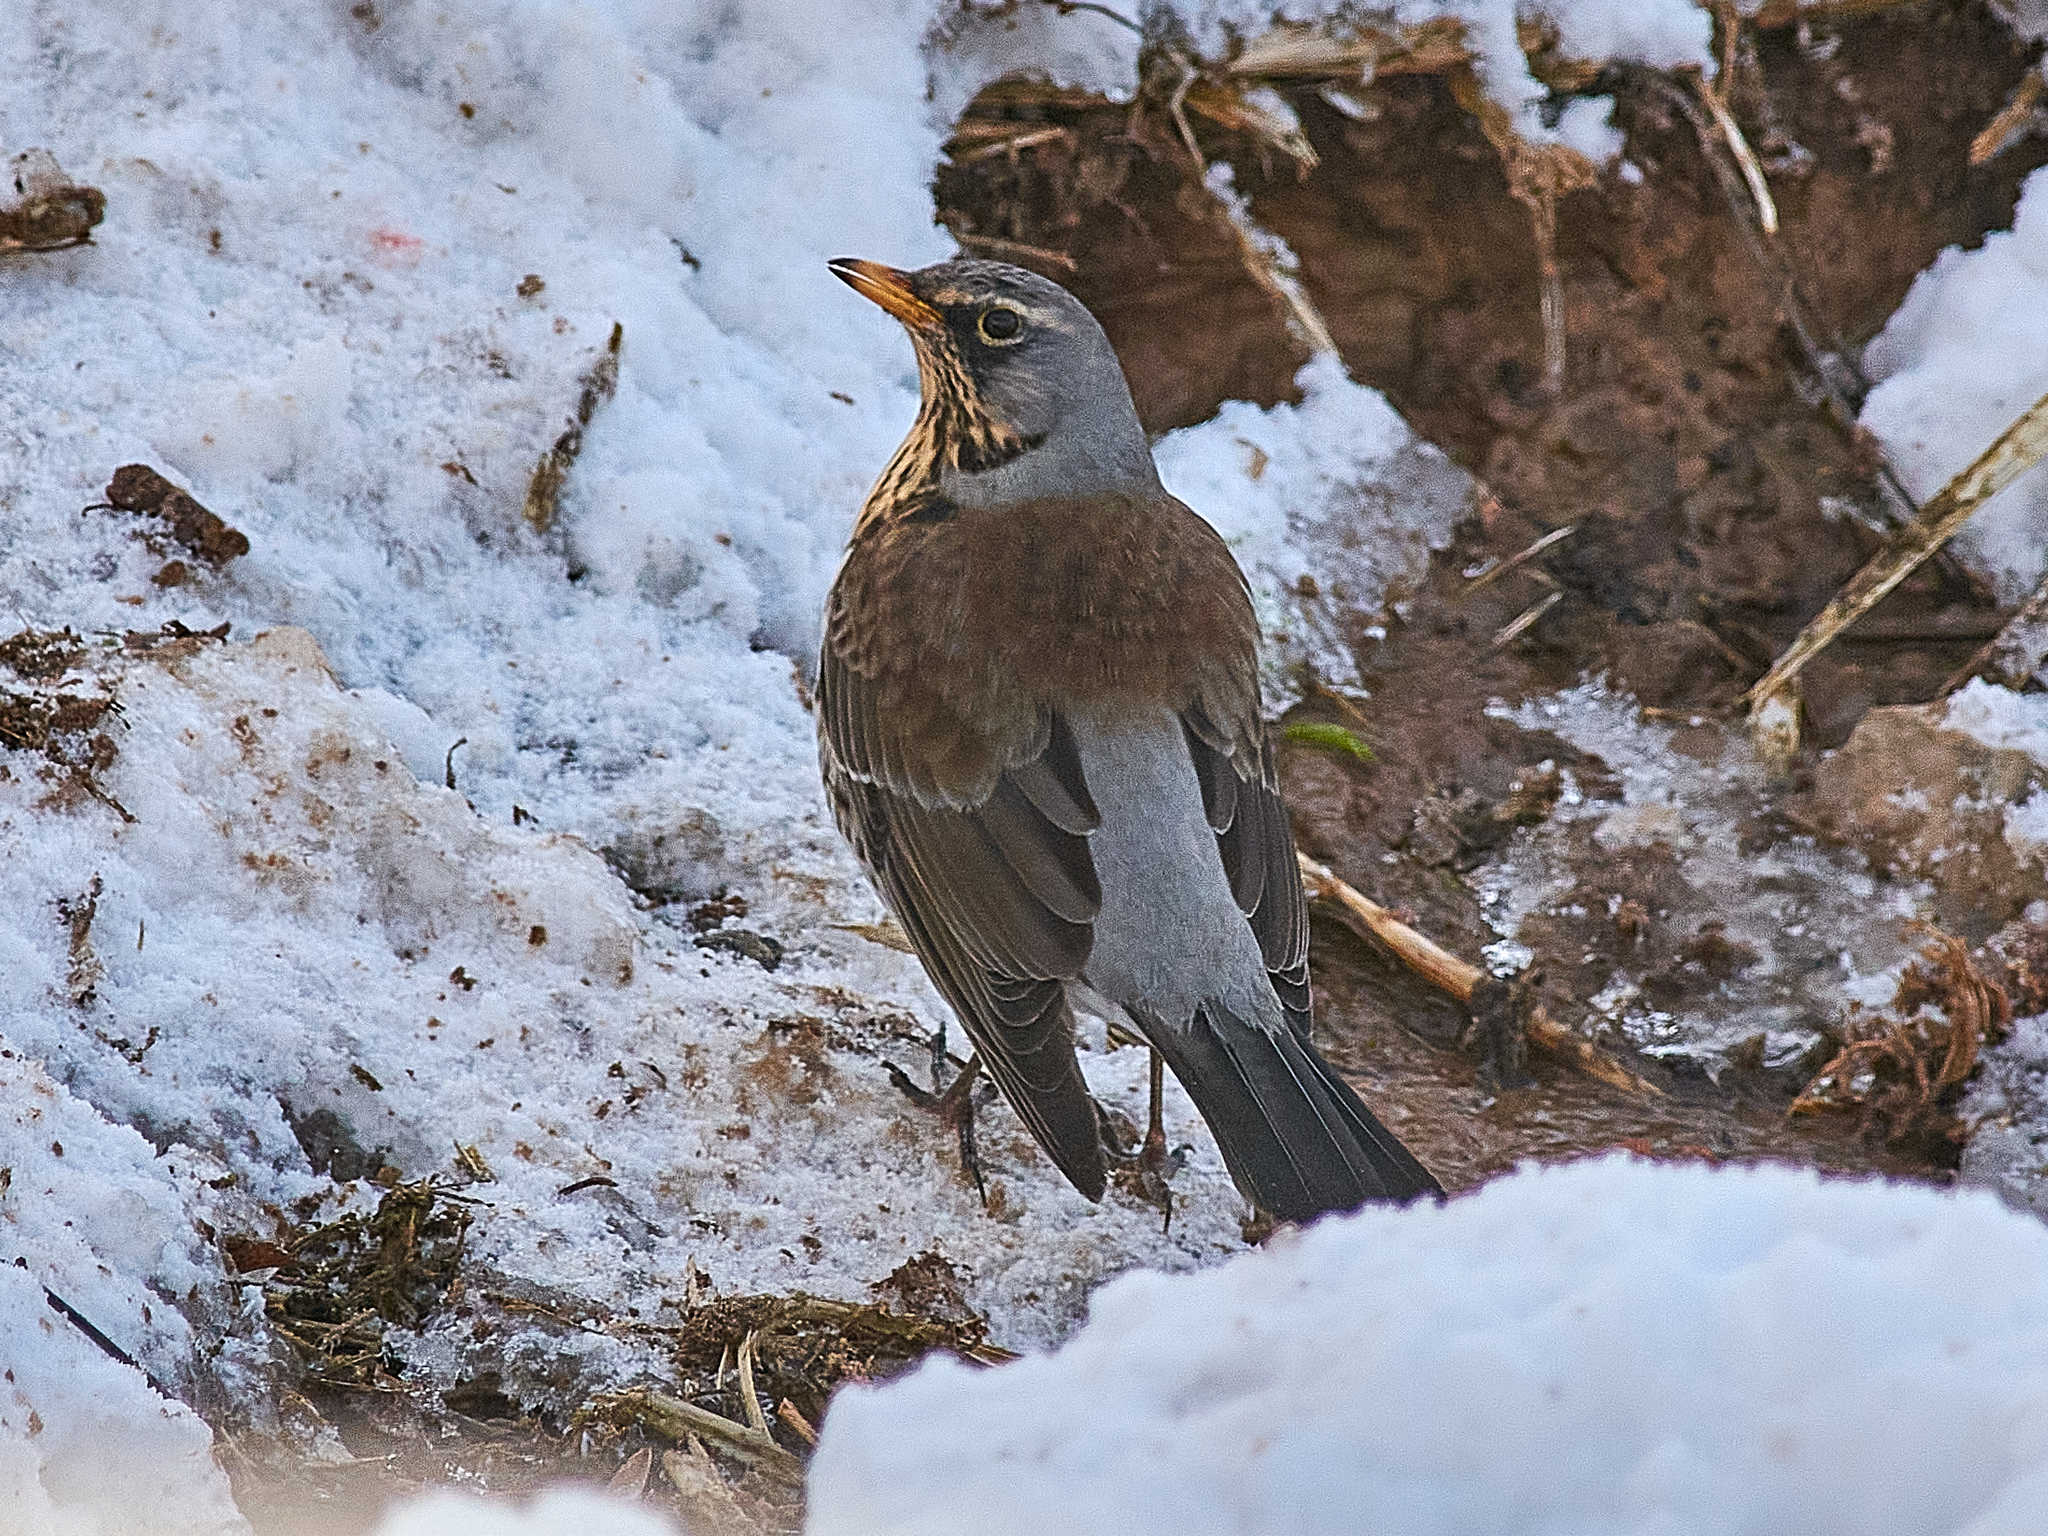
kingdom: Animalia
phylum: Chordata
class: Aves
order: Passeriformes
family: Turdidae
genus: Turdus
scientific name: Turdus pilaris
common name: Fieldfare
